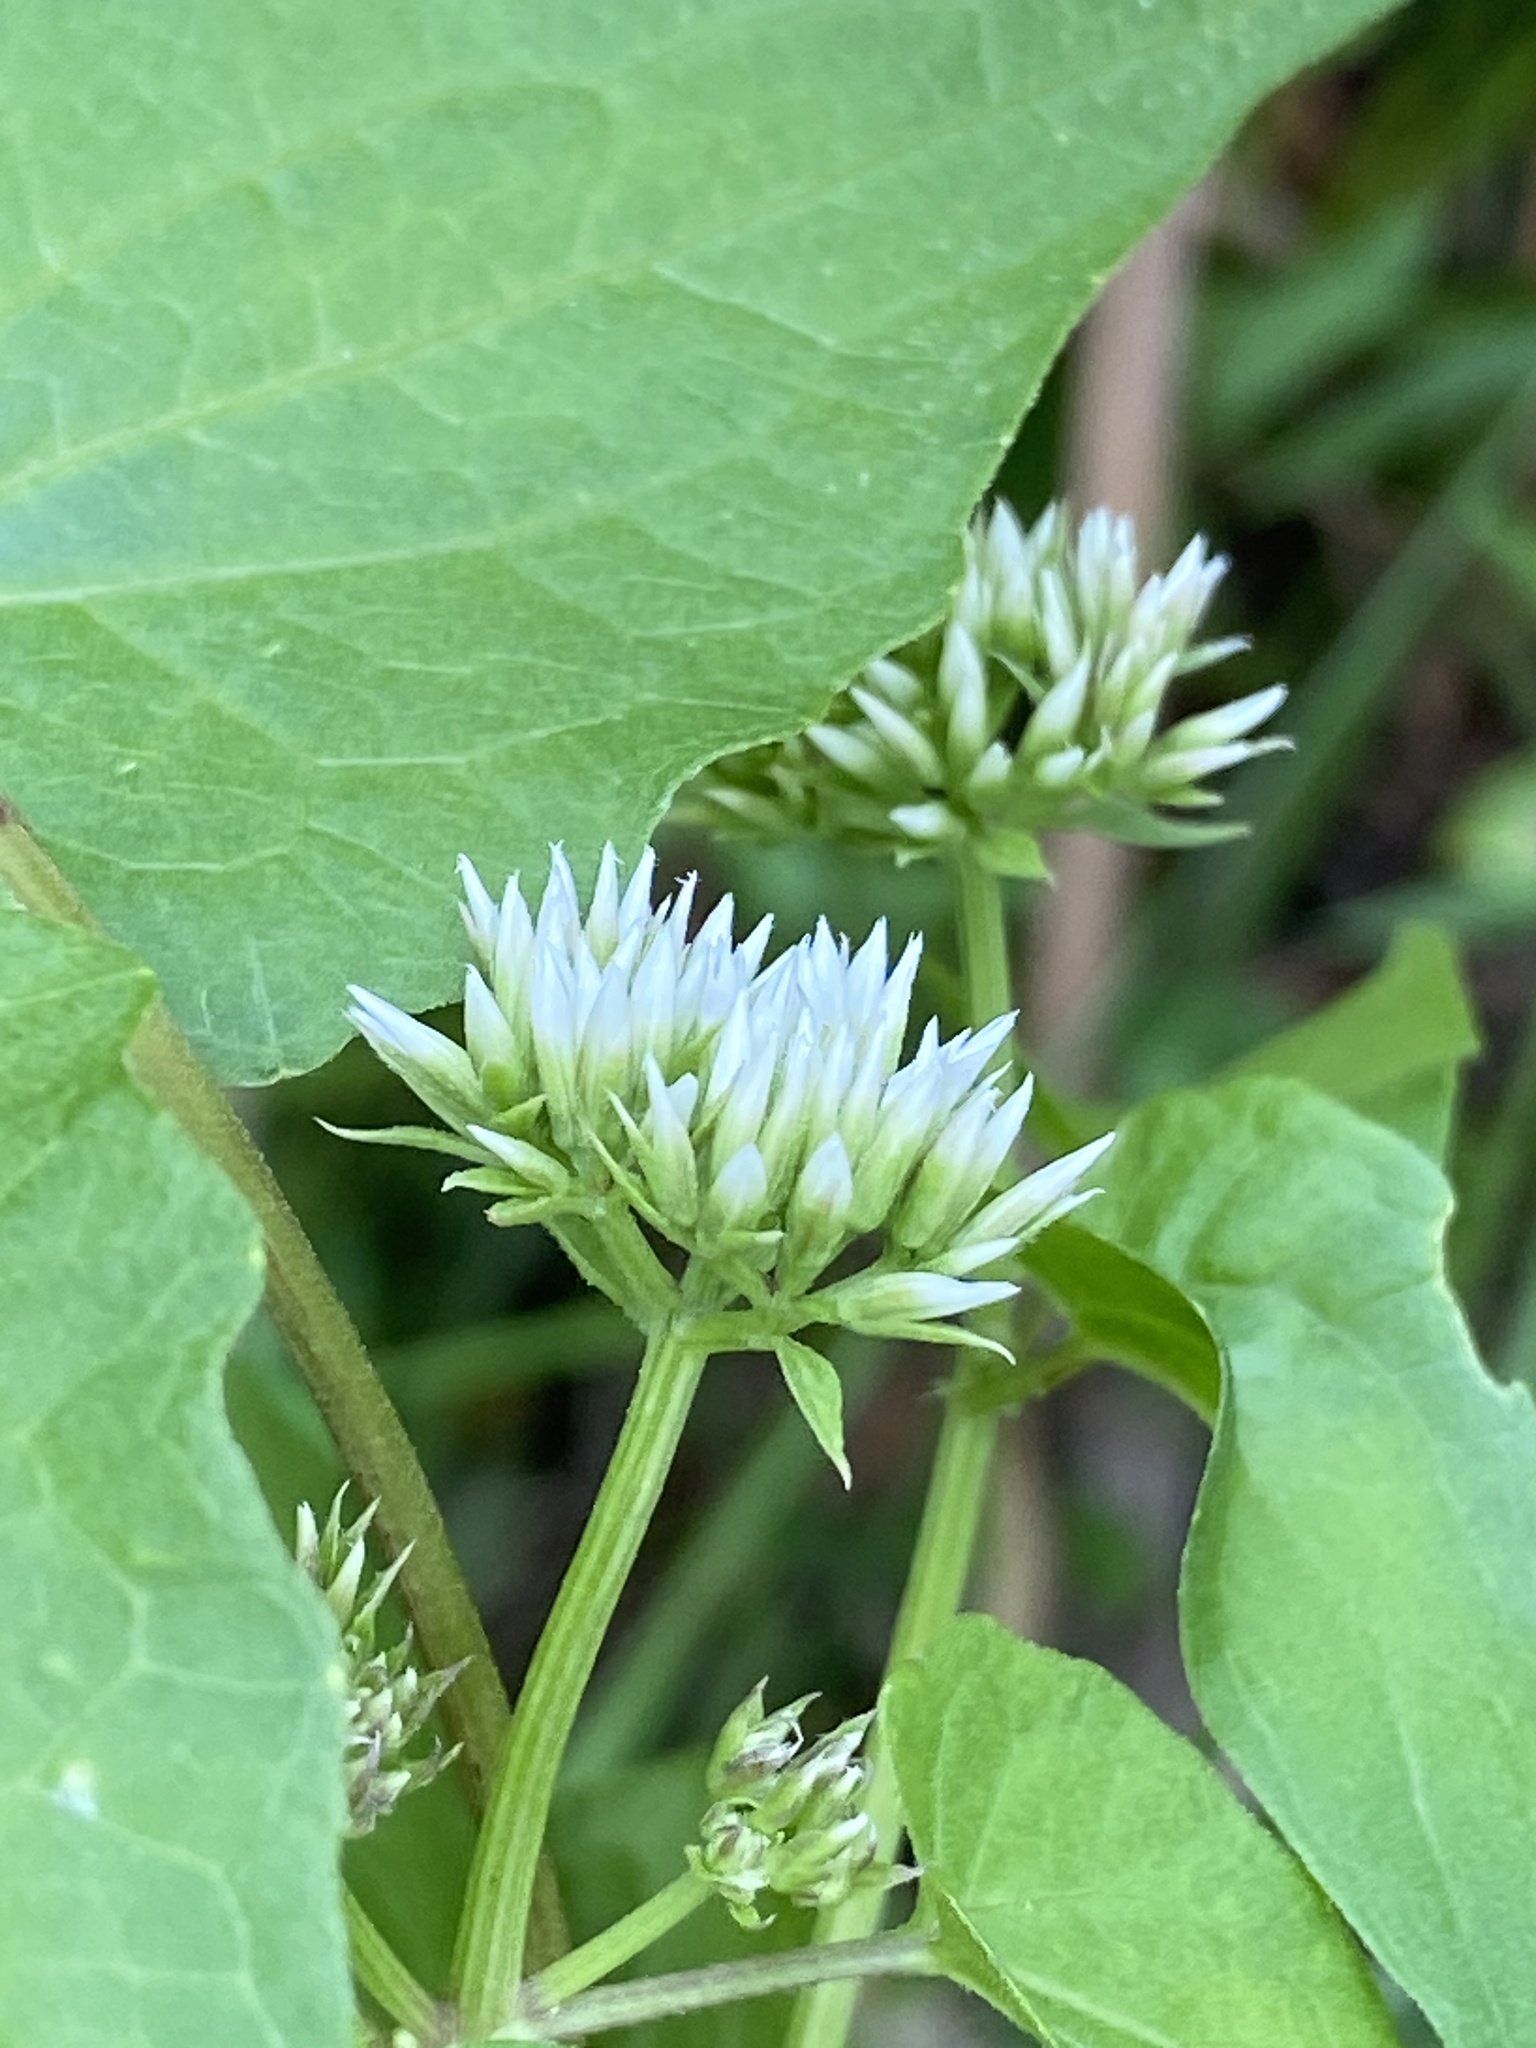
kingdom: Plantae
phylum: Tracheophyta
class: Magnoliopsida
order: Asterales
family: Asteraceae
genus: Mikania
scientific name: Mikania scandens
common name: Climbing hempvine
